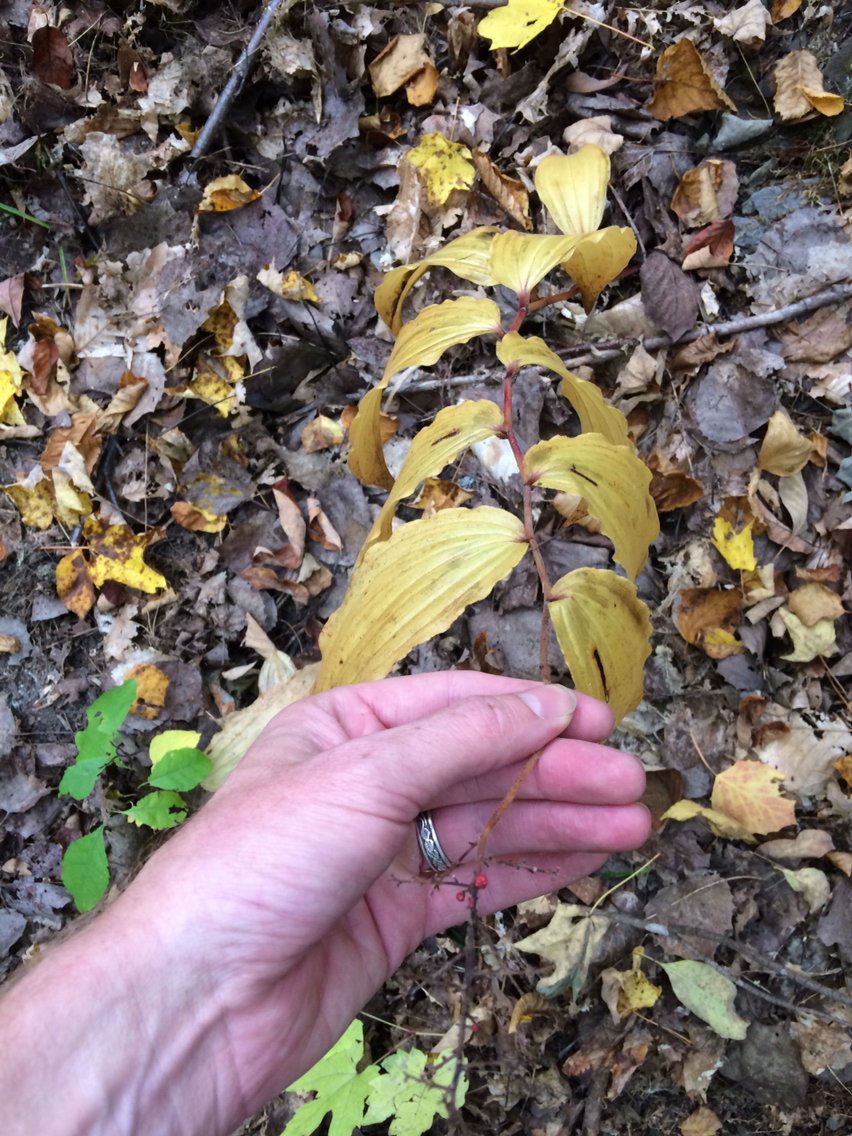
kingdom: Plantae
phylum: Tracheophyta
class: Liliopsida
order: Asparagales
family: Asparagaceae
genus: Maianthemum
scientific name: Maianthemum racemosum
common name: False spikenard
